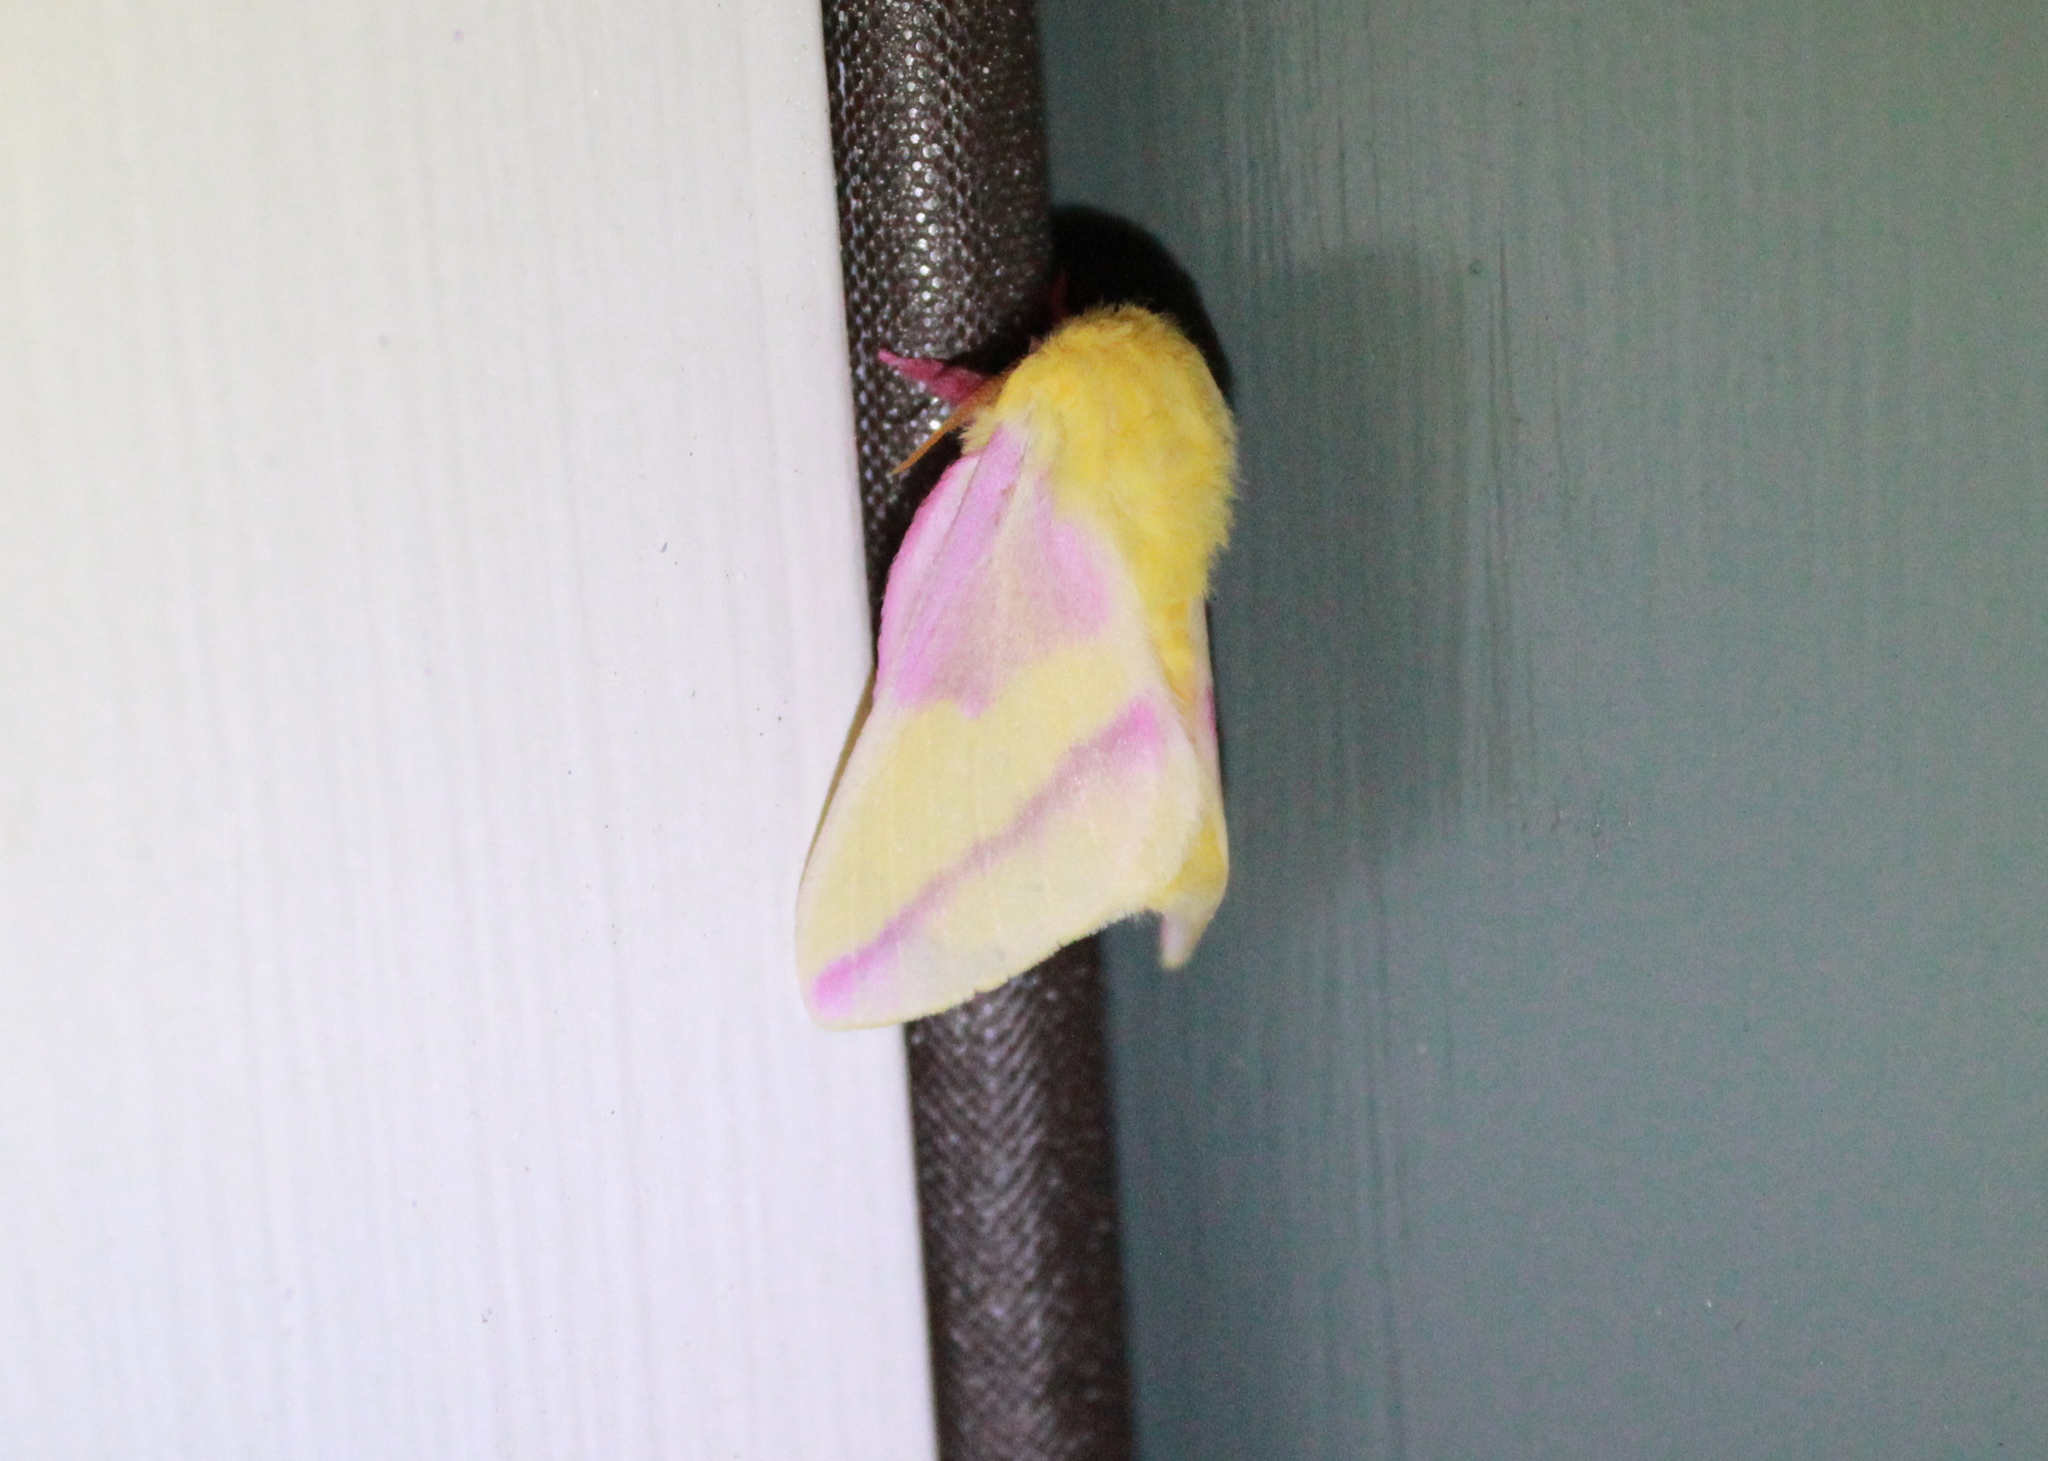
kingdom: Animalia
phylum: Arthropoda
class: Insecta
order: Lepidoptera
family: Saturniidae
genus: Dryocampa
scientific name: Dryocampa rubicunda
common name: Rosy maple moth
